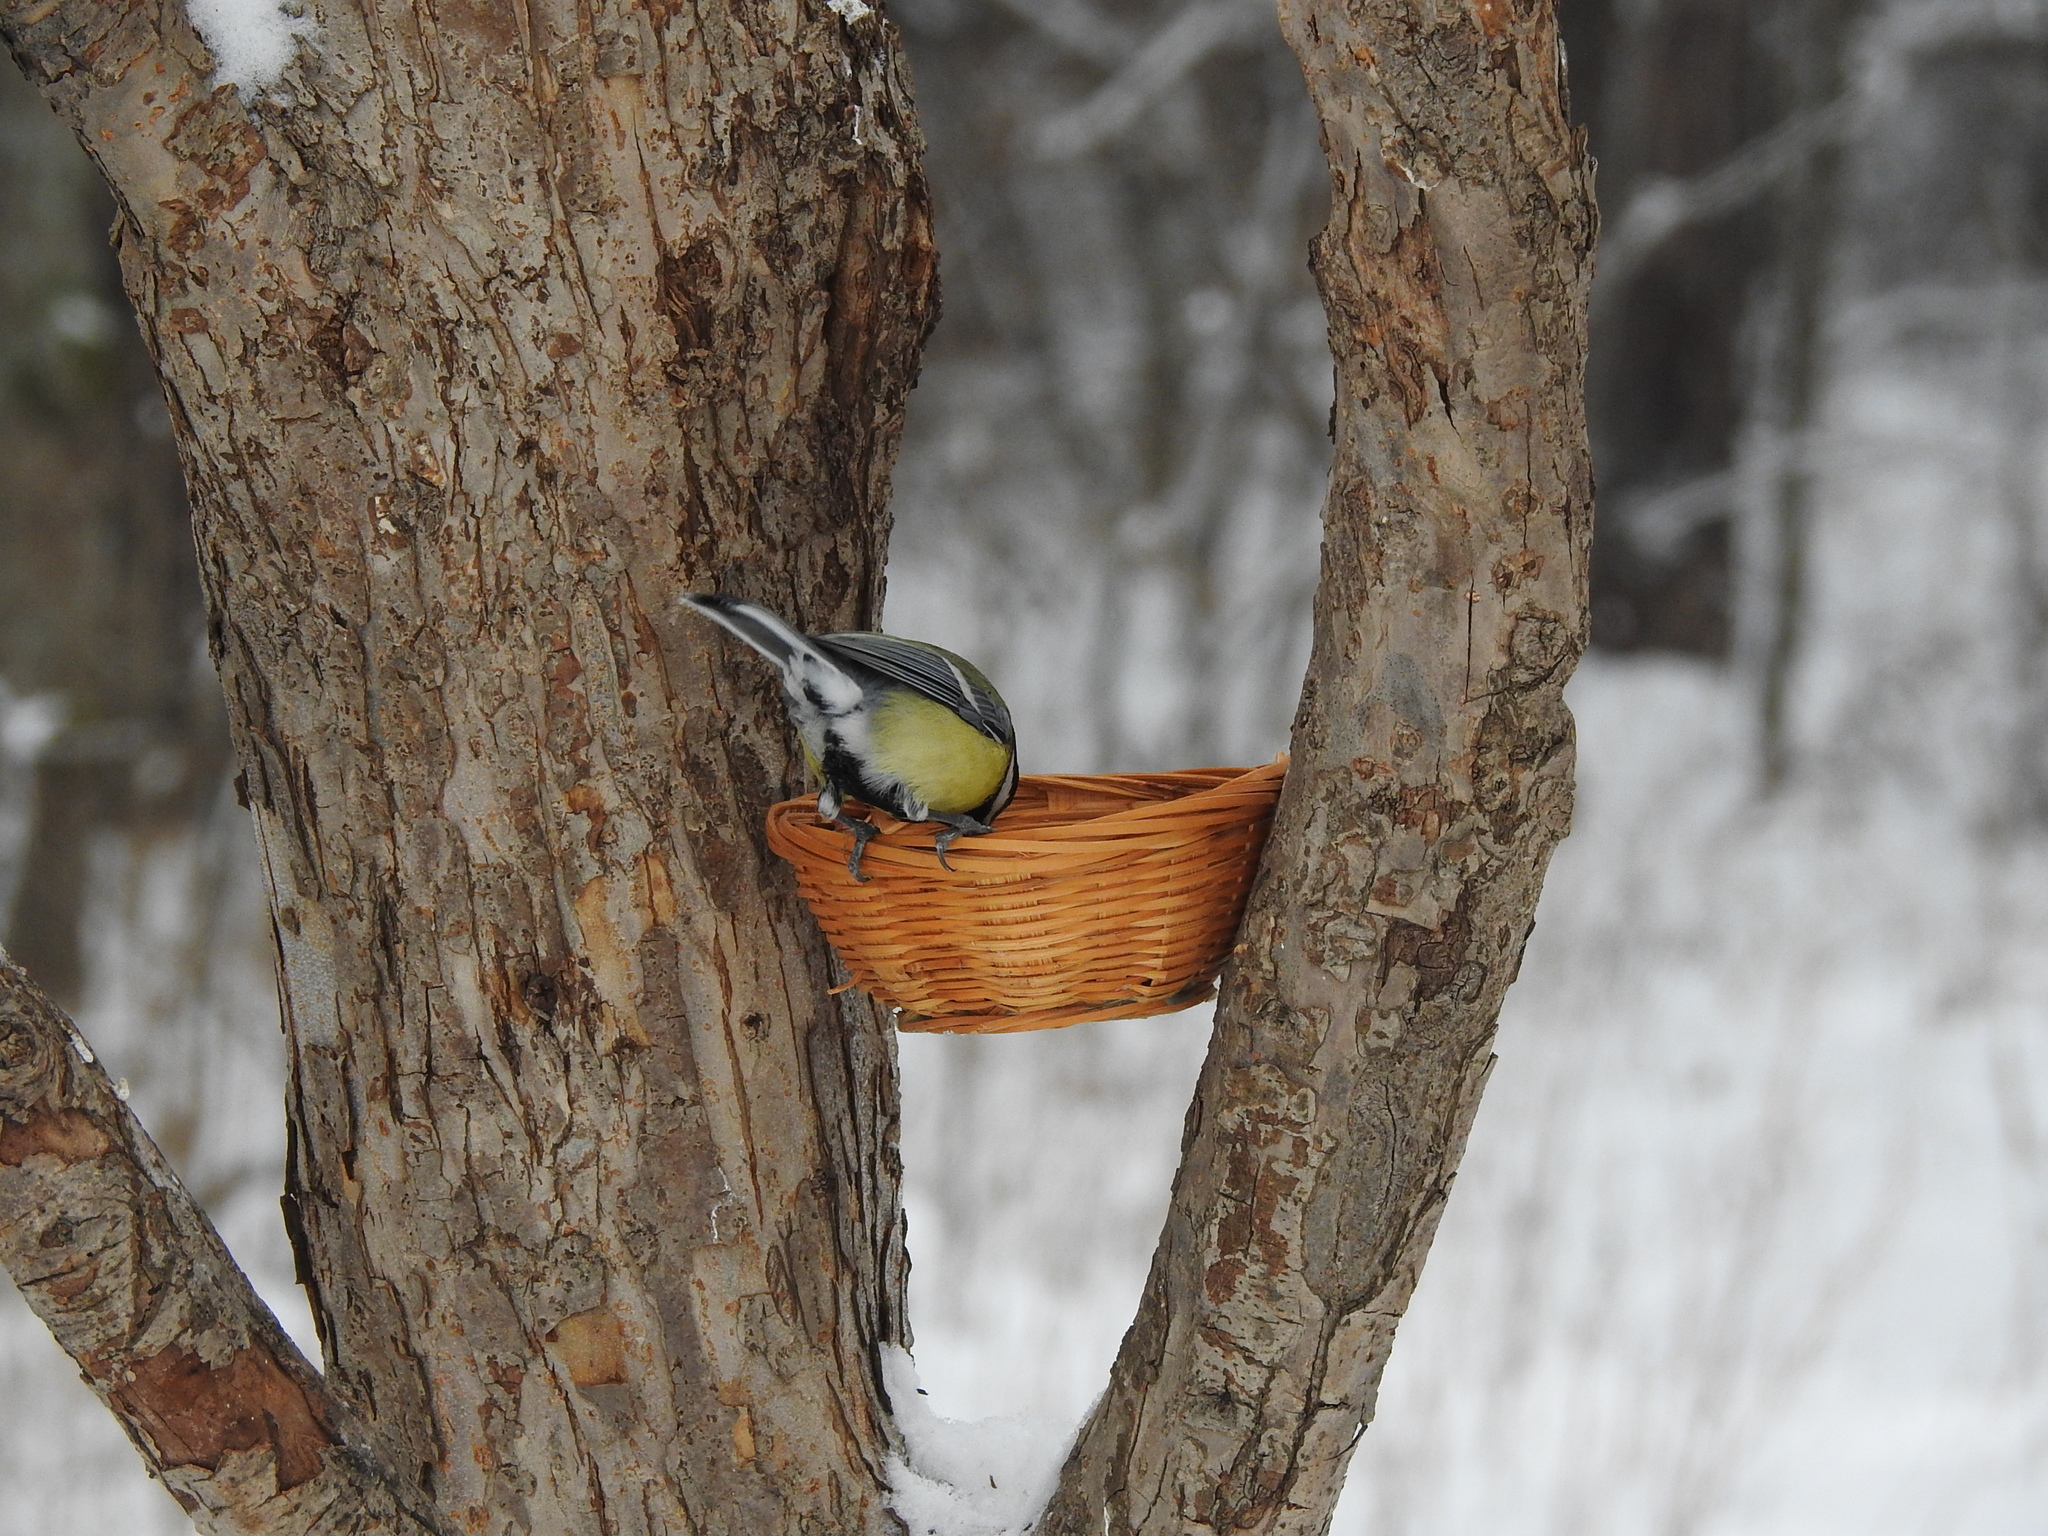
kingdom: Animalia
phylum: Chordata
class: Aves
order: Passeriformes
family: Paridae
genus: Parus
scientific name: Parus major
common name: Great tit
